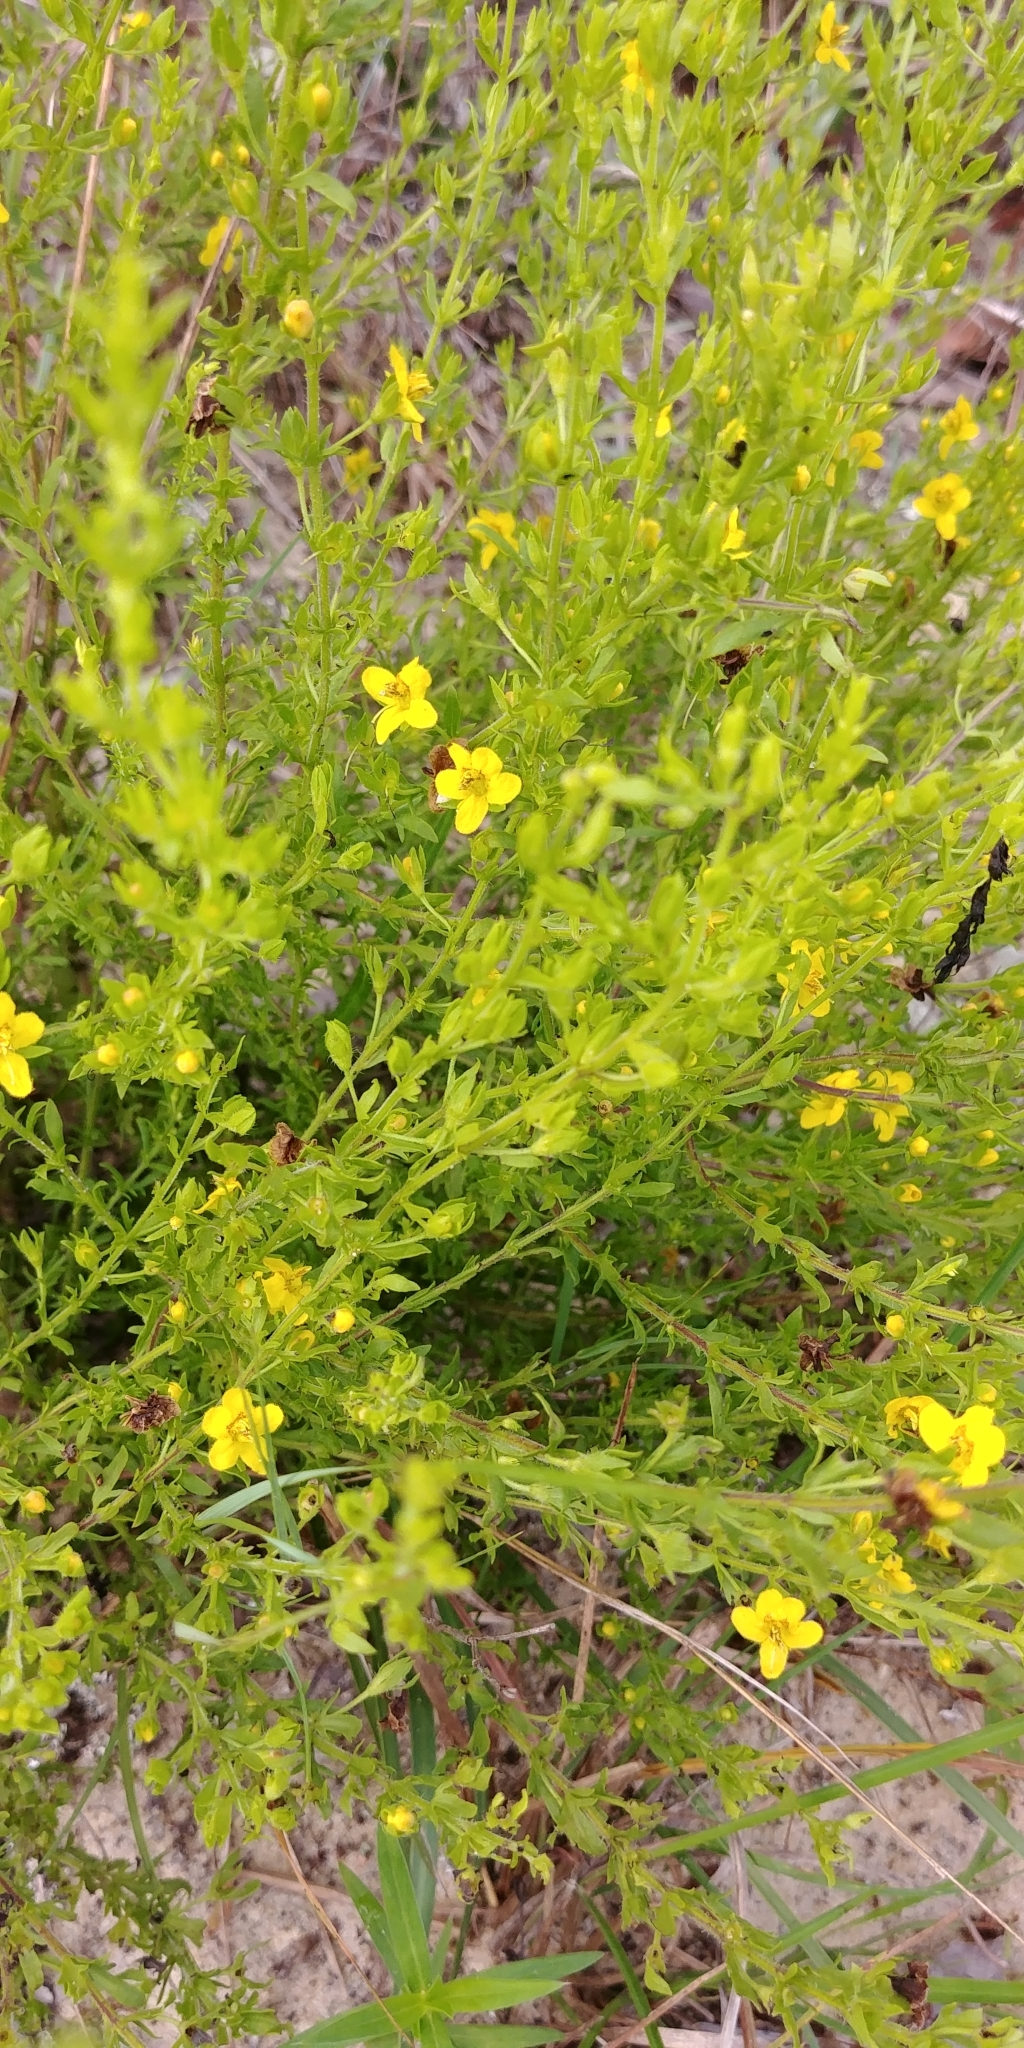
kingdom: Plantae
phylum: Tracheophyta
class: Magnoliopsida
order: Lamiales
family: Orobanchaceae
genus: Seymeria
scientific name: Seymeria pectinata
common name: Piedmont black-senna
